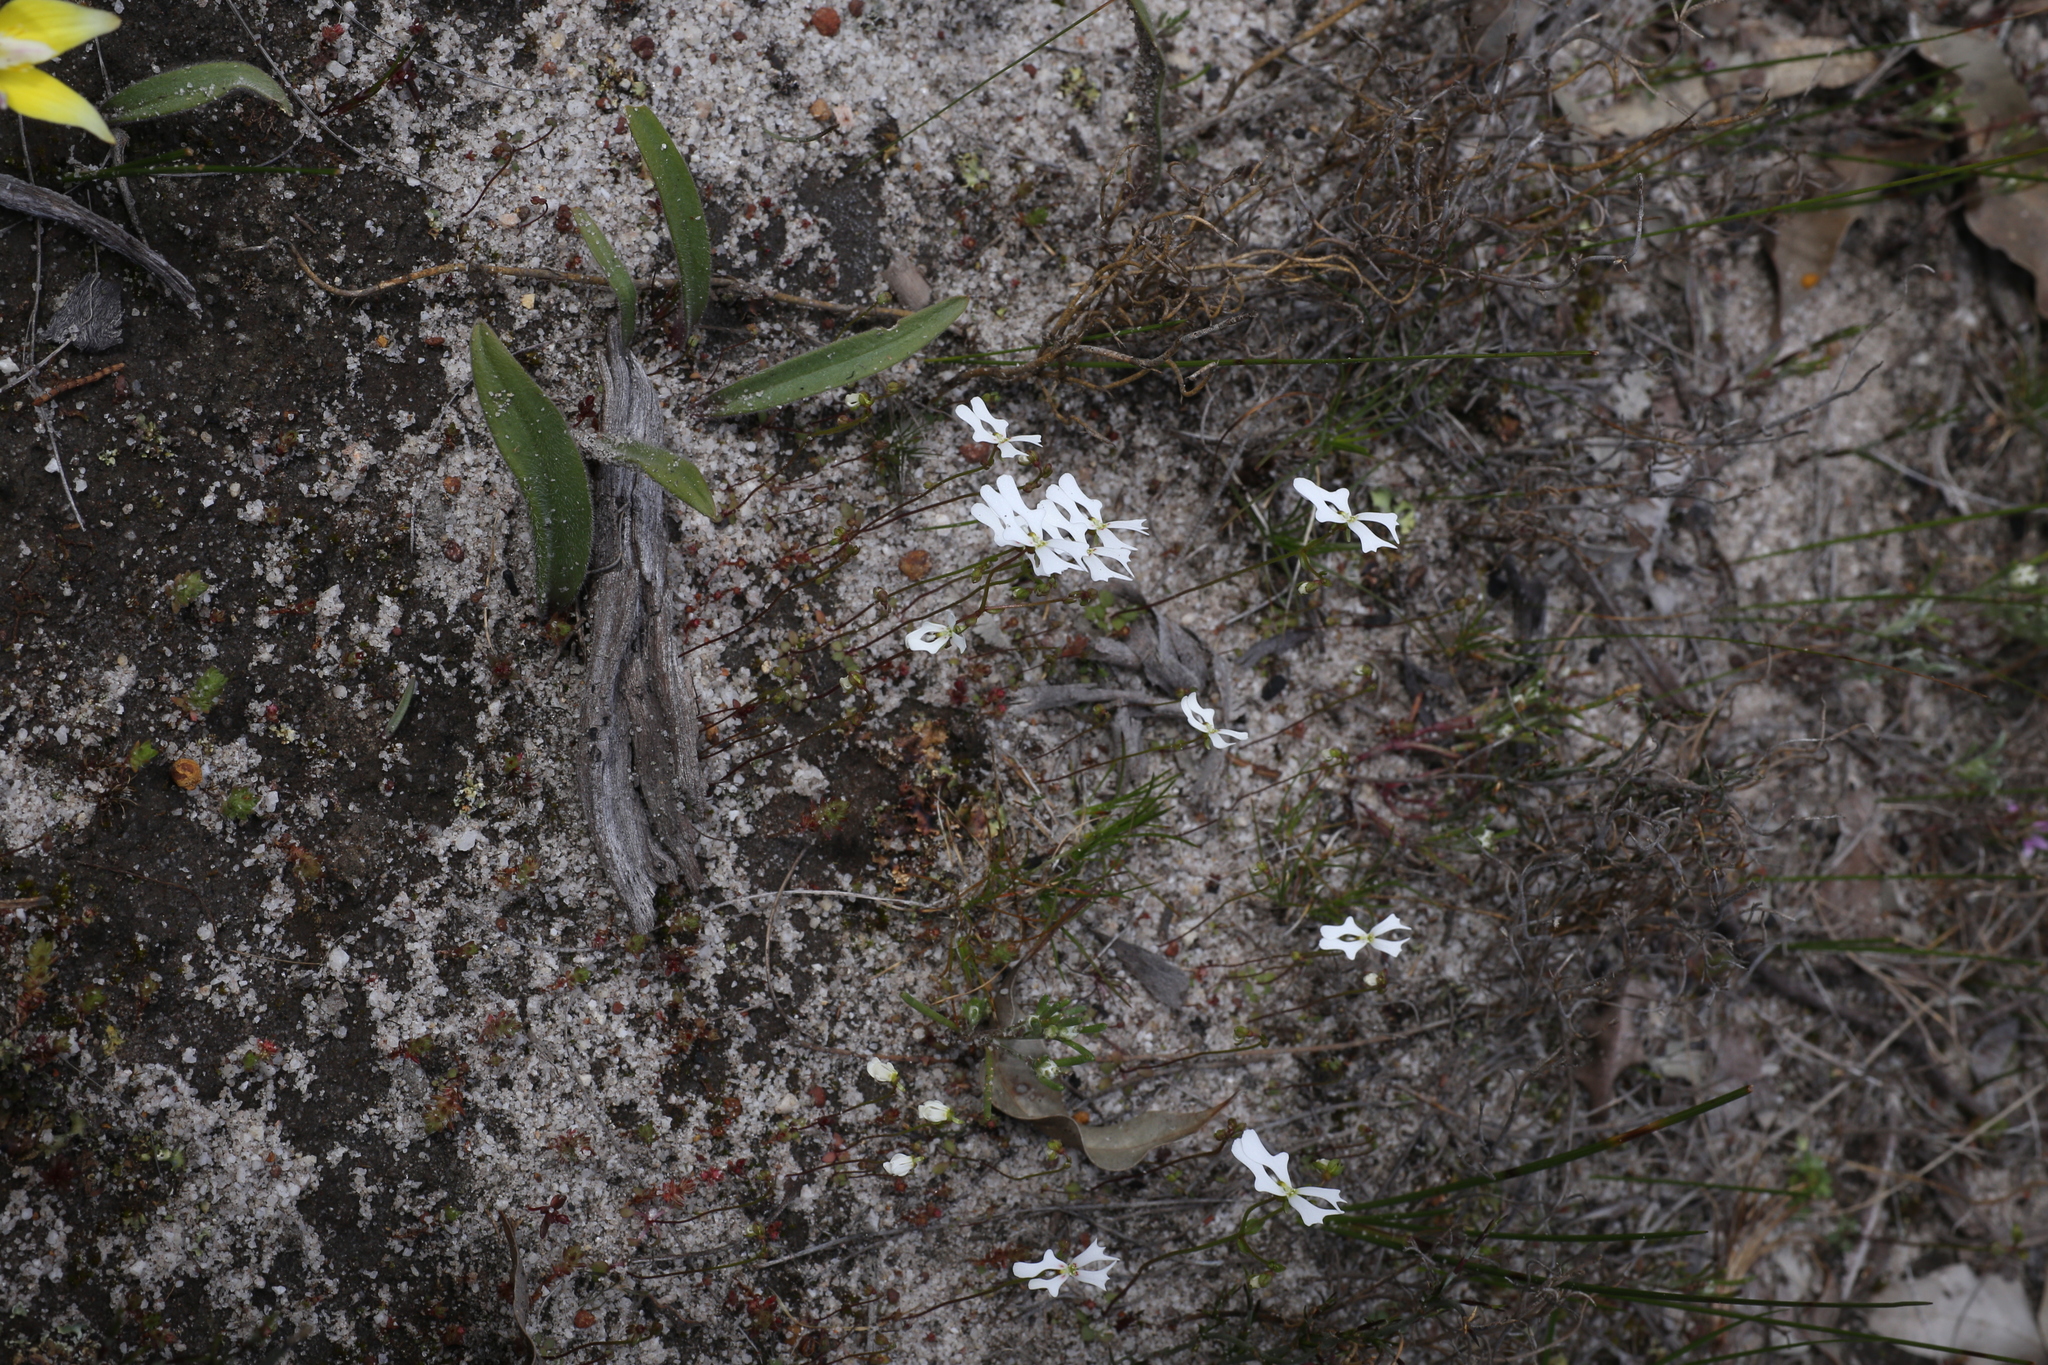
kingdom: Plantae
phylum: Tracheophyta
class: Magnoliopsida
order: Asterales
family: Stylidiaceae
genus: Stylidium
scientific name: Stylidium androsaceum
